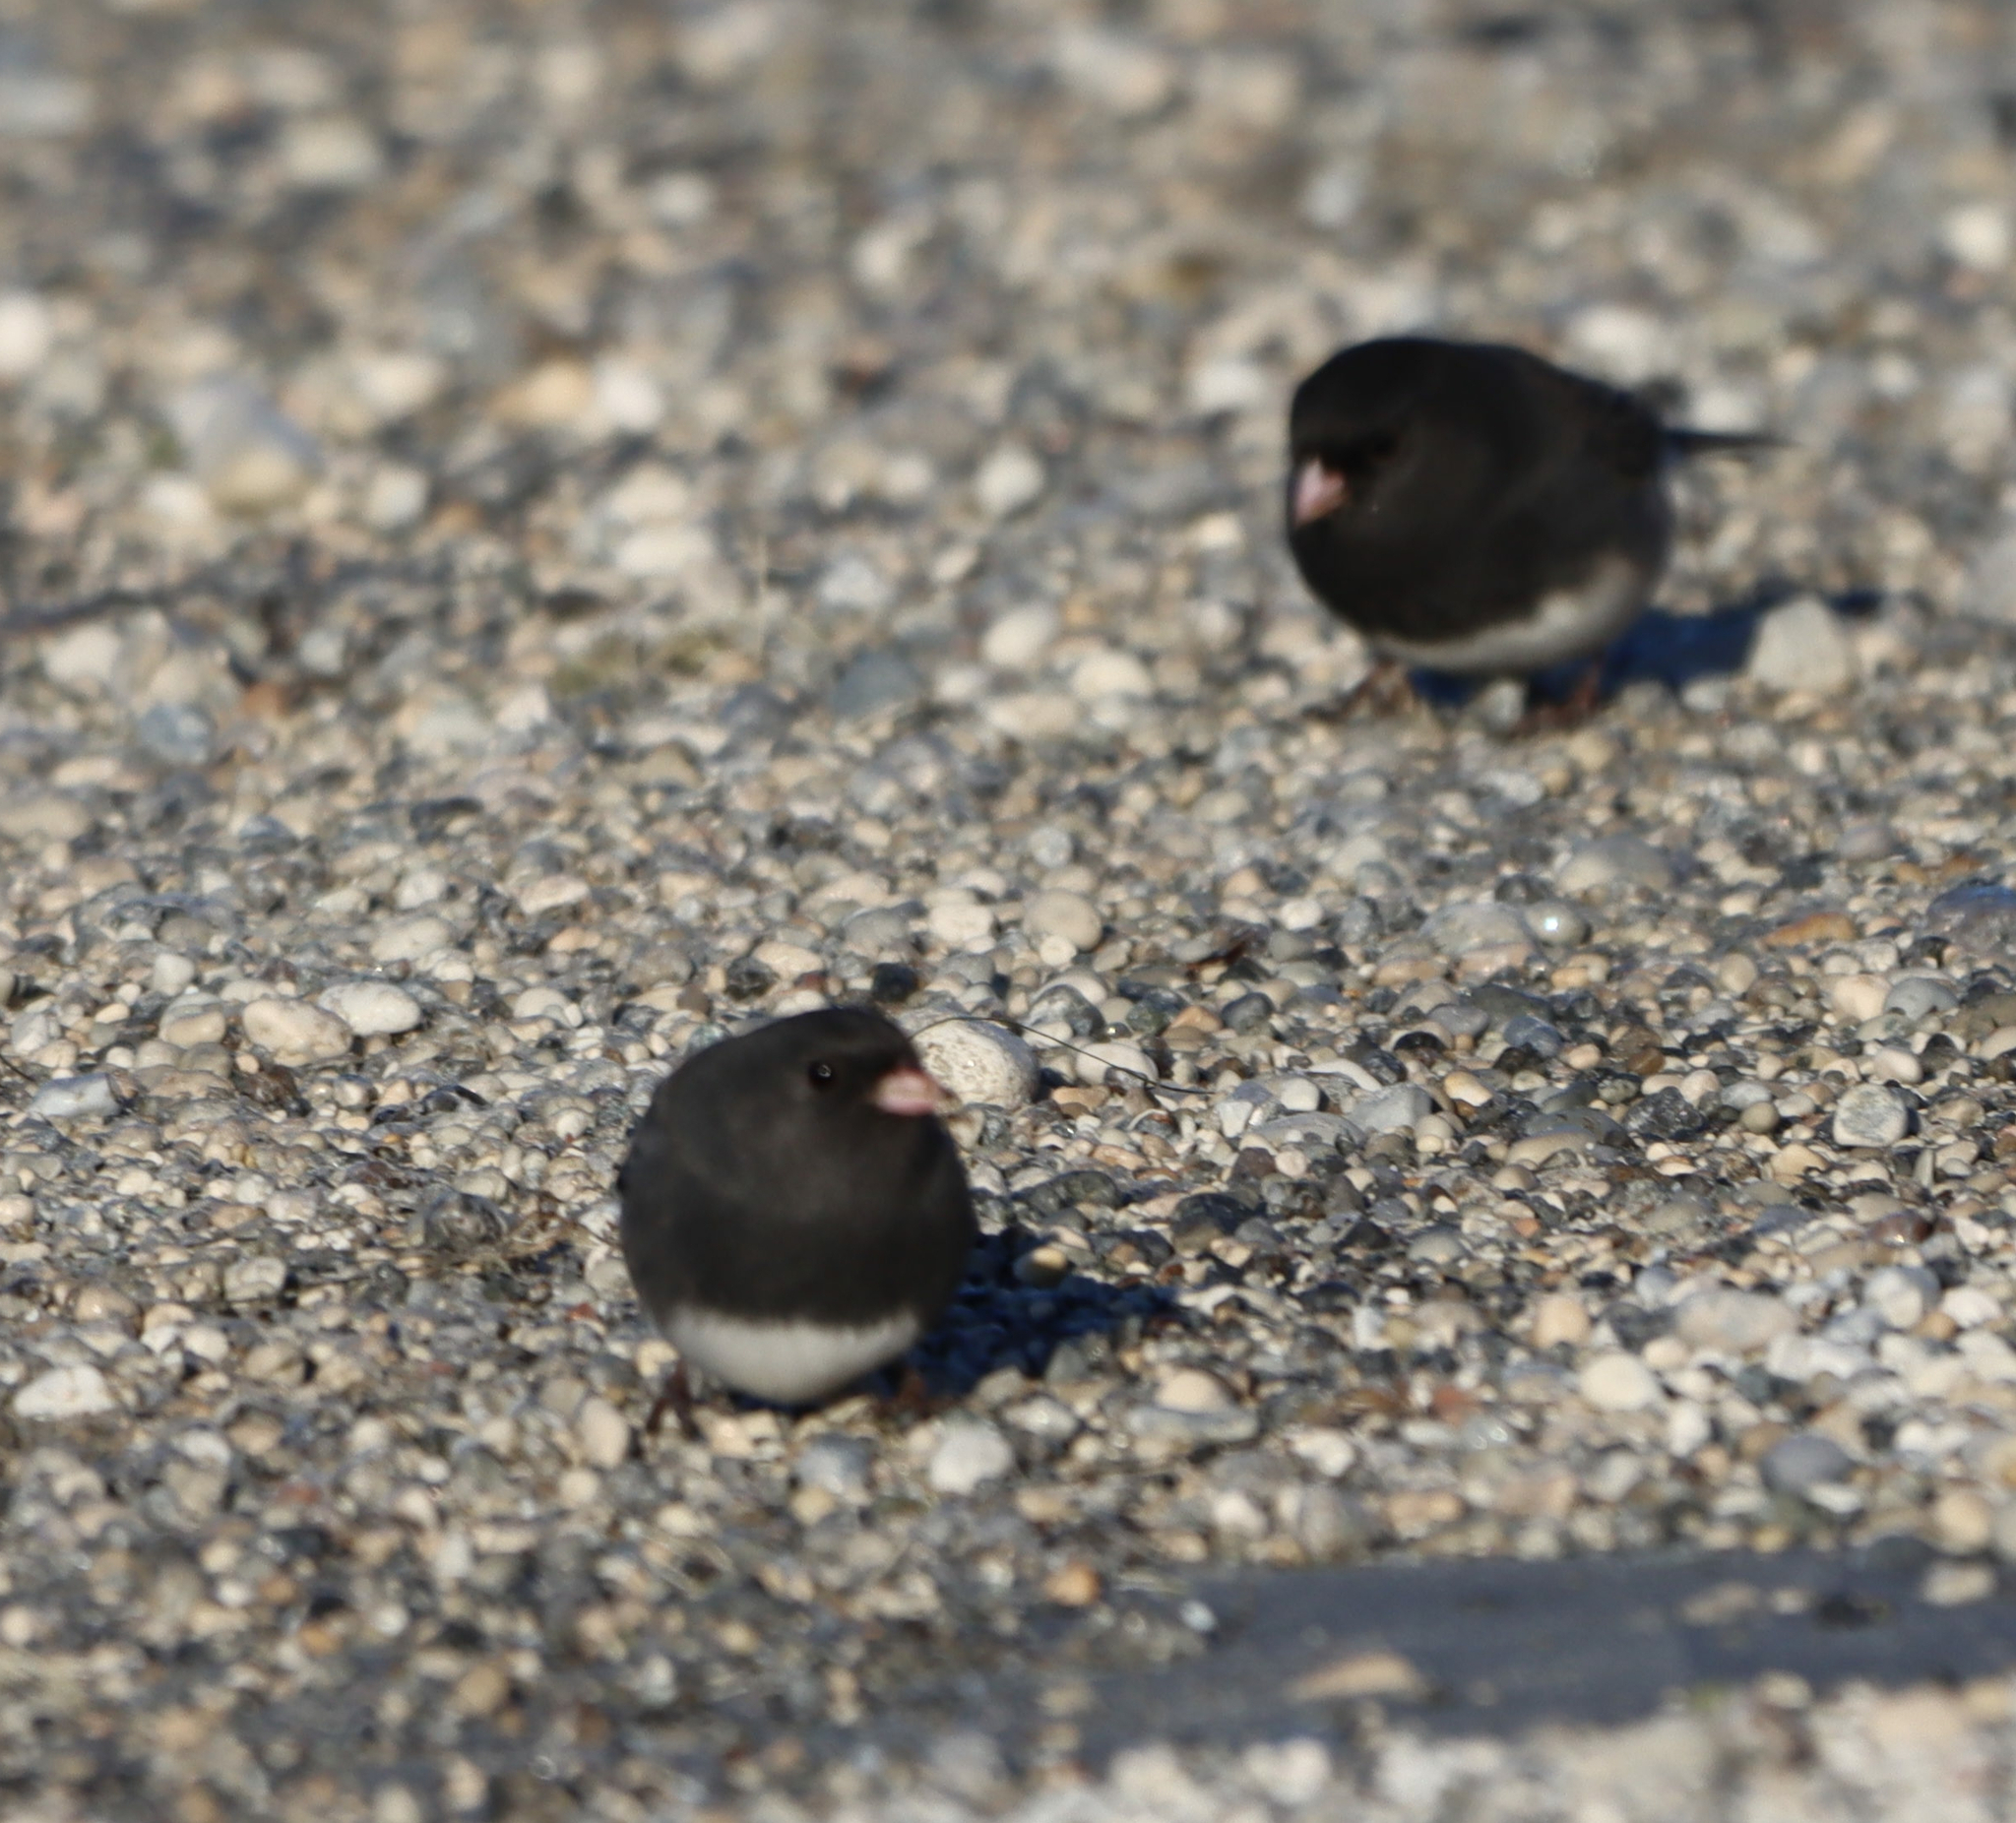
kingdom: Animalia
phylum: Chordata
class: Aves
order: Passeriformes
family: Passerellidae
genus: Junco
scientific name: Junco hyemalis
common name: Dark-eyed junco
